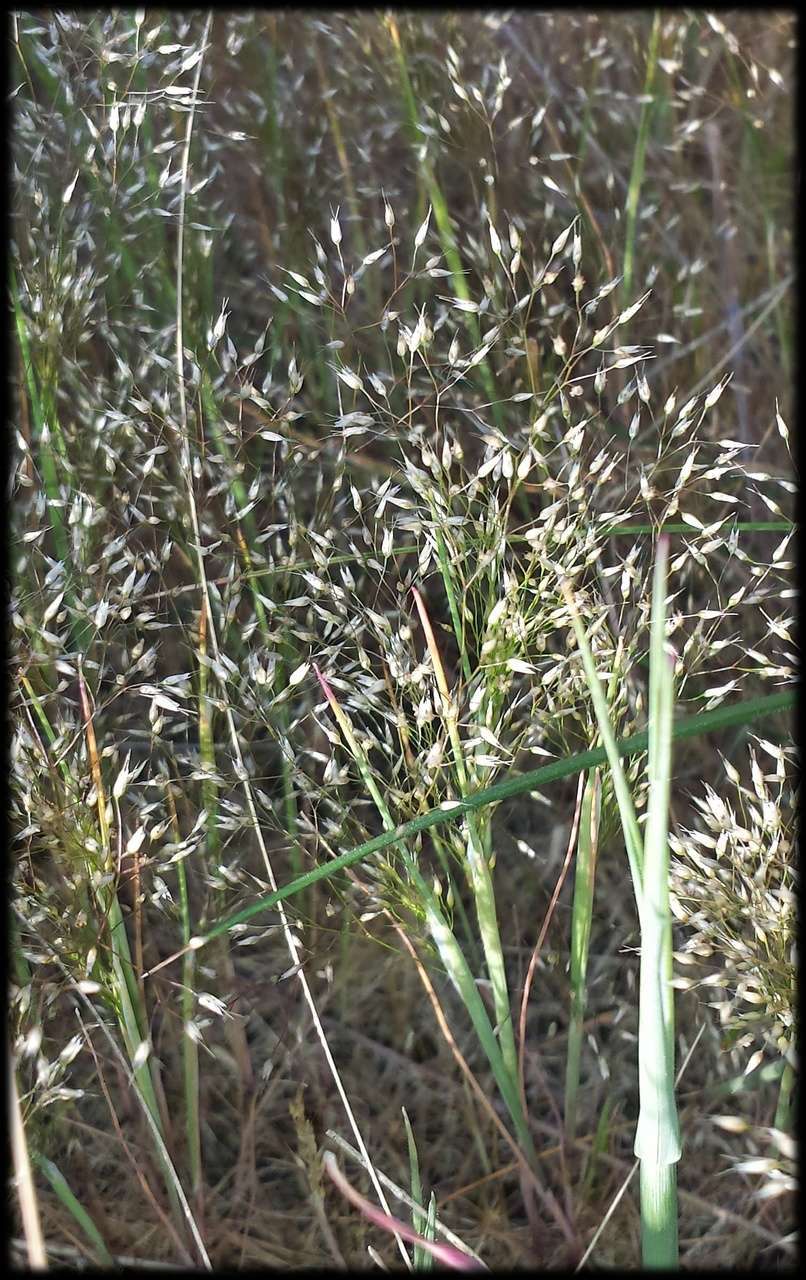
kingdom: Plantae
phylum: Tracheophyta
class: Liliopsida
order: Poales
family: Poaceae
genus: Aira
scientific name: Aira elegans
